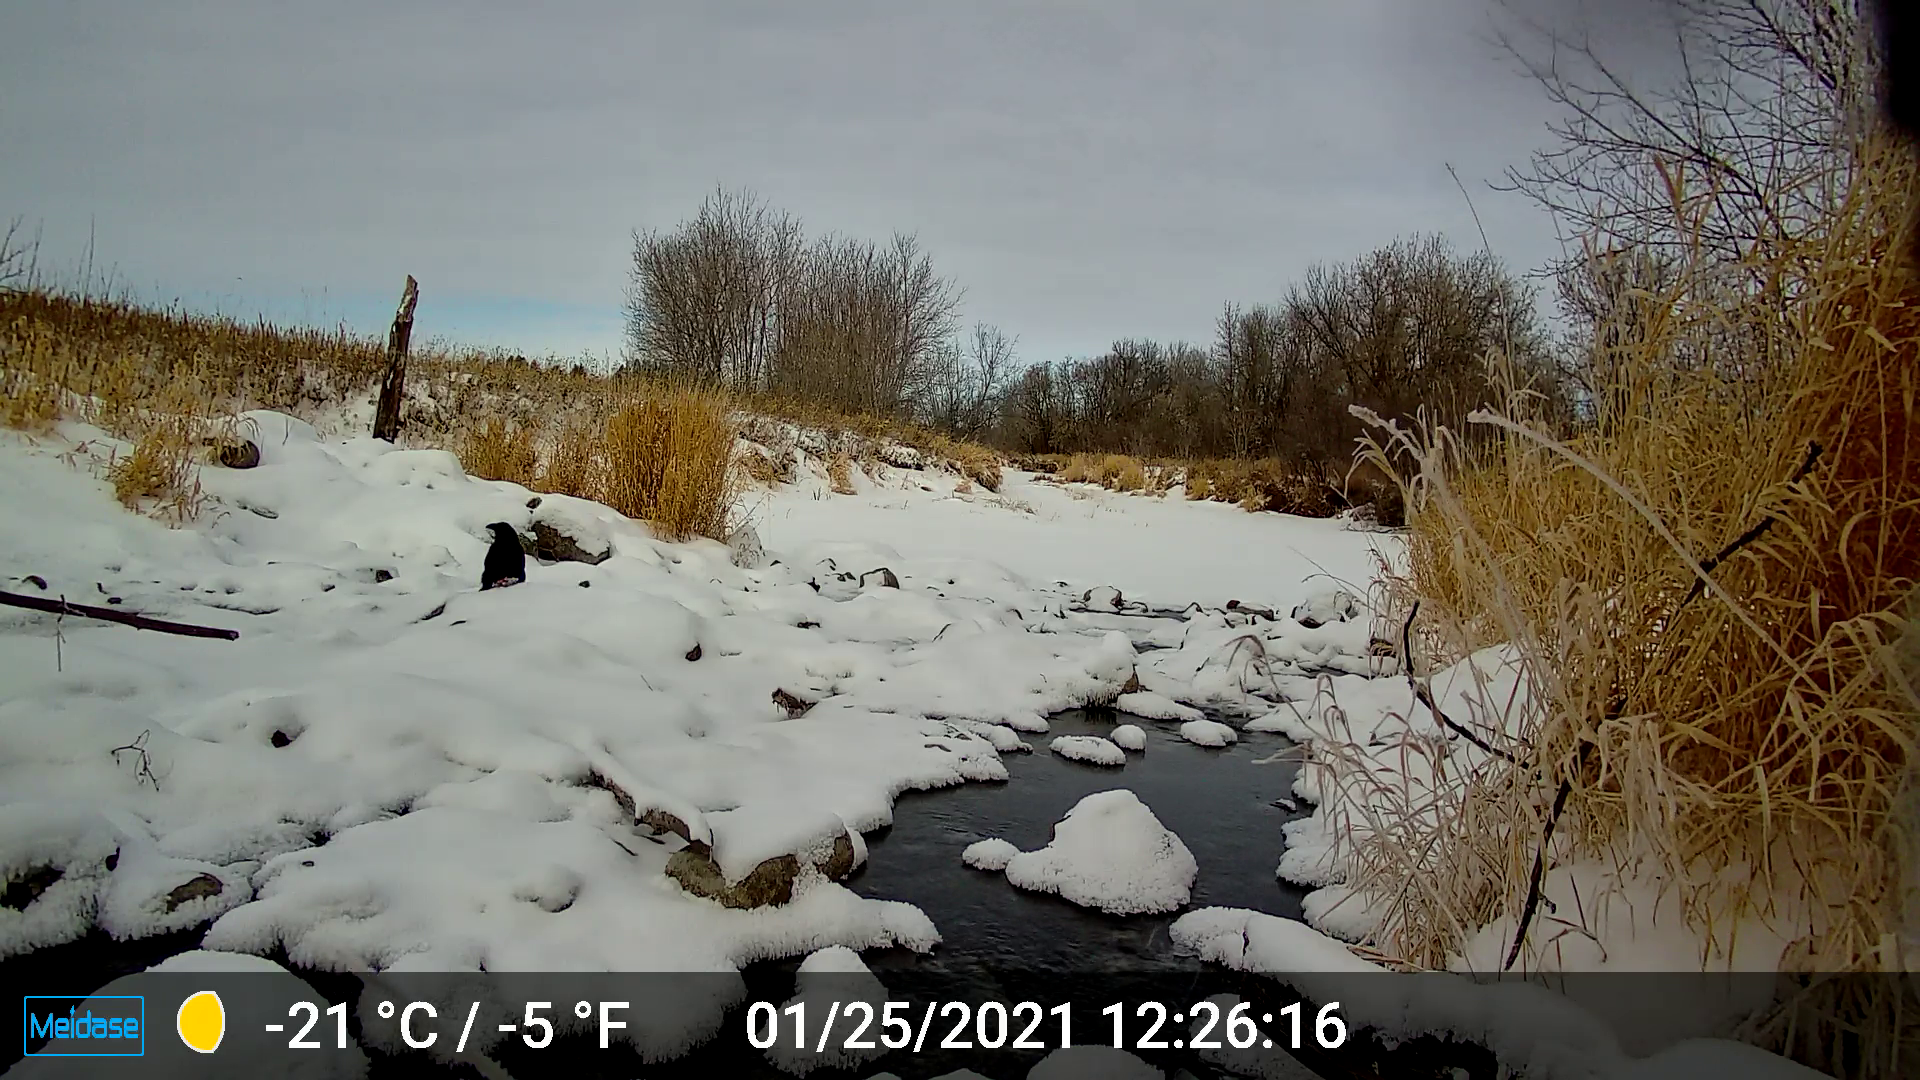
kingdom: Animalia
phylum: Chordata
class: Aves
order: Passeriformes
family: Corvidae
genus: Corvus
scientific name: Corvus corax
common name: Common raven
